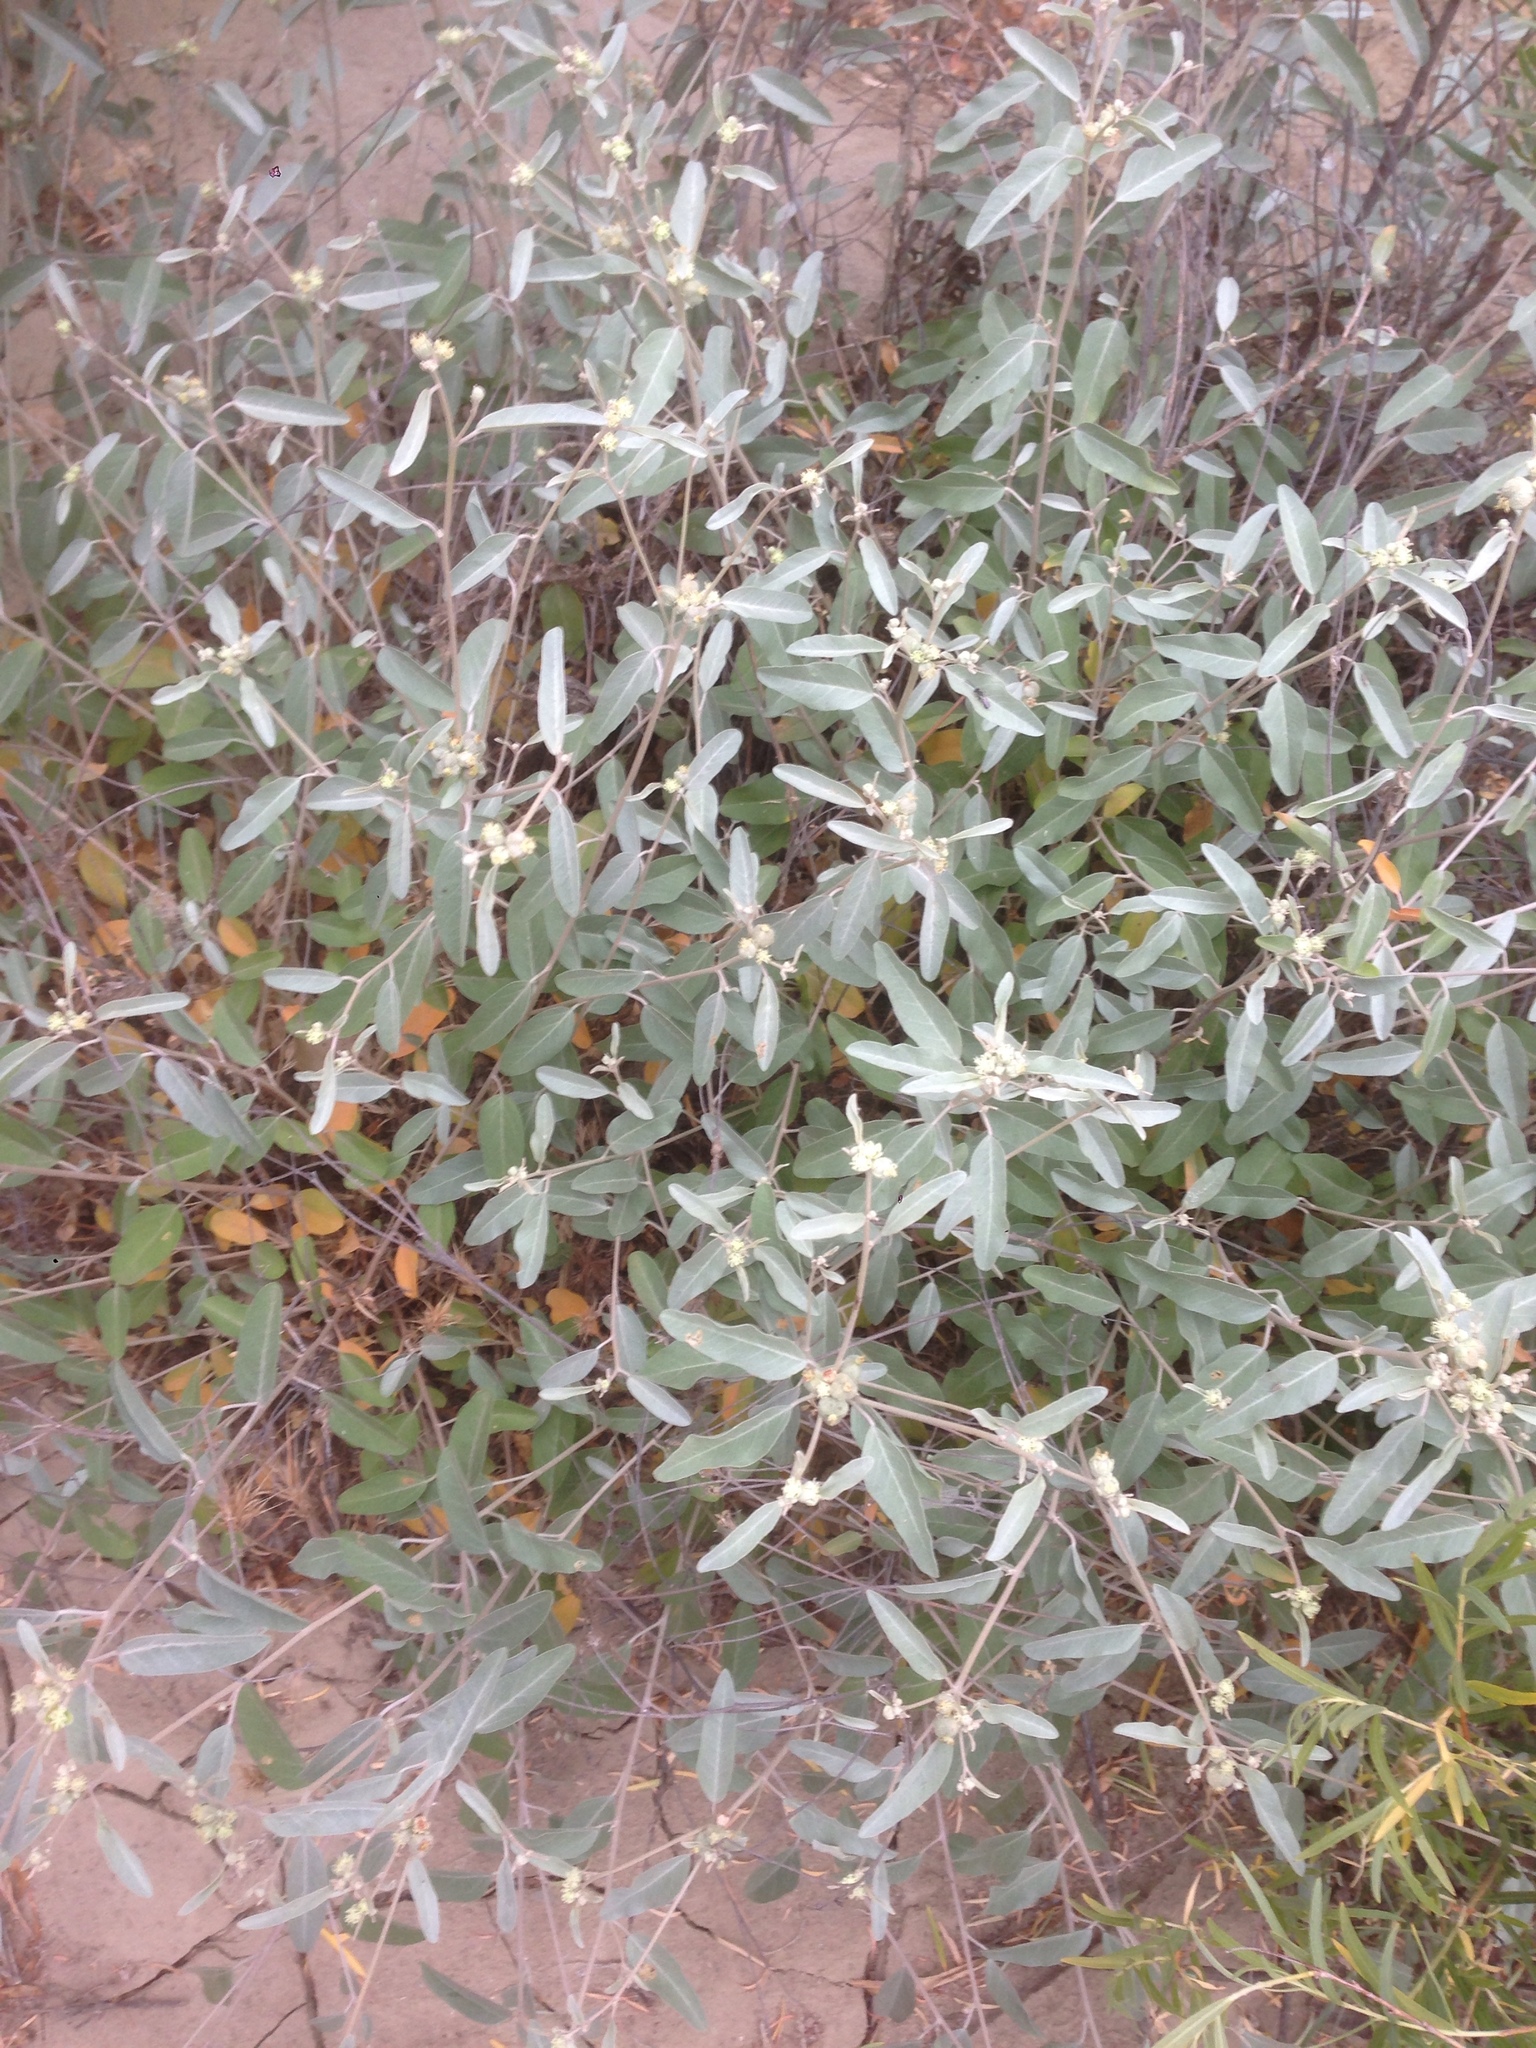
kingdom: Plantae
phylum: Tracheophyta
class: Magnoliopsida
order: Malpighiales
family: Euphorbiaceae
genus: Croton
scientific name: Croton californicus
